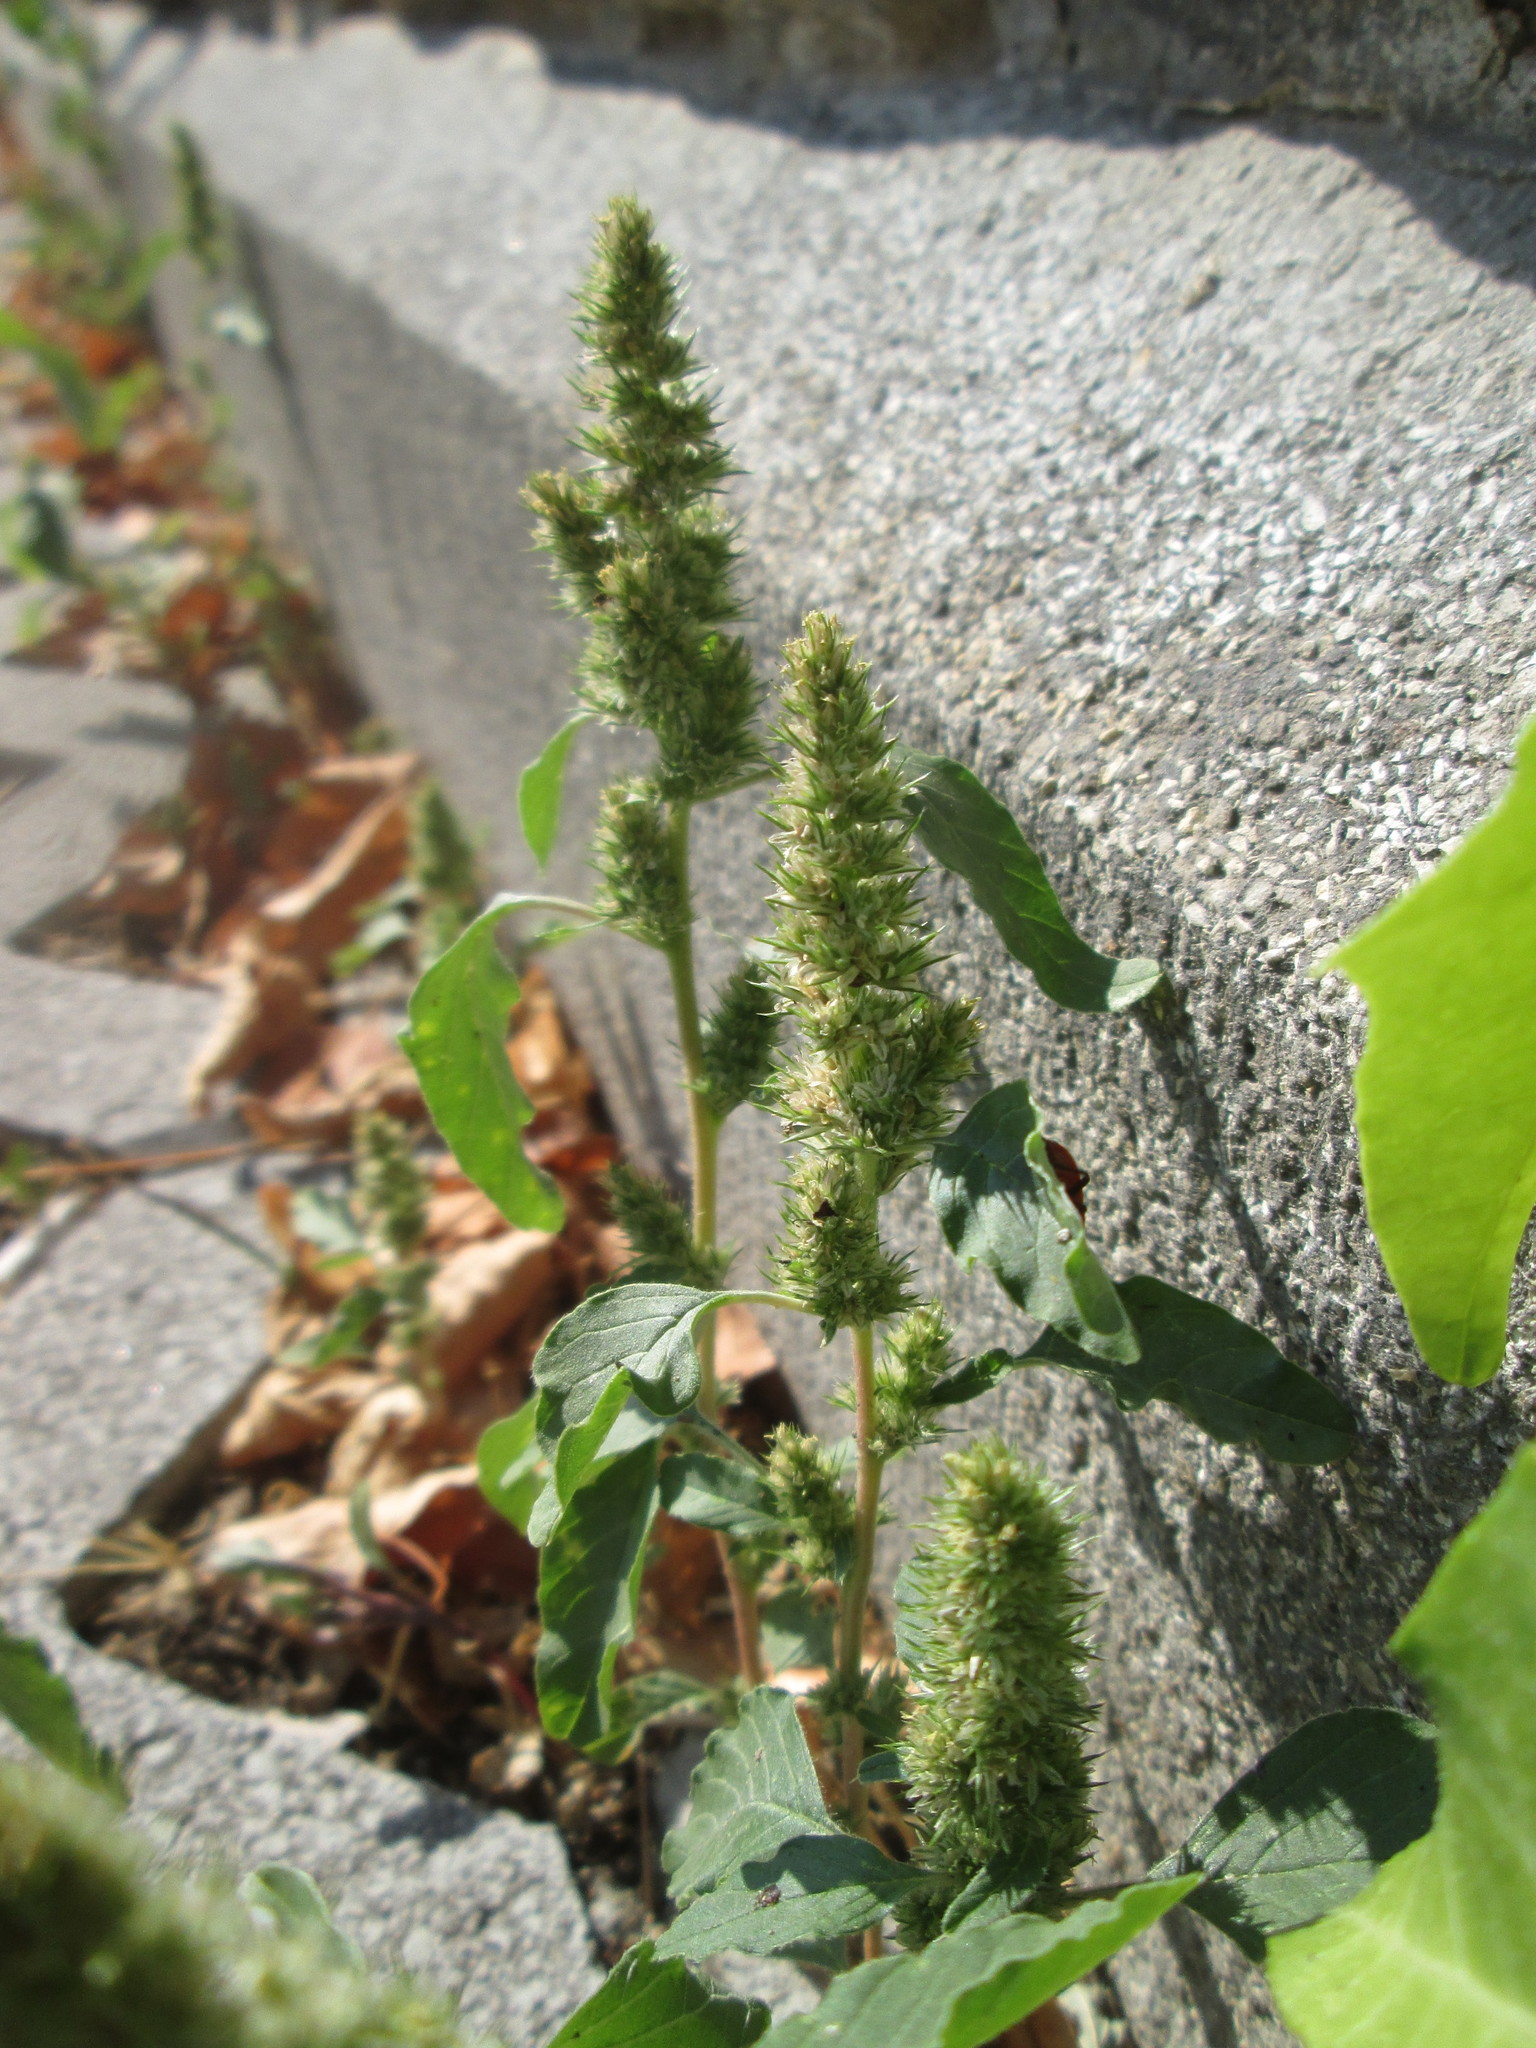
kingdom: Plantae
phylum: Tracheophyta
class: Magnoliopsida
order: Caryophyllales
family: Amaranthaceae
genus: Amaranthus
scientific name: Amaranthus retroflexus
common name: Redroot amaranth
